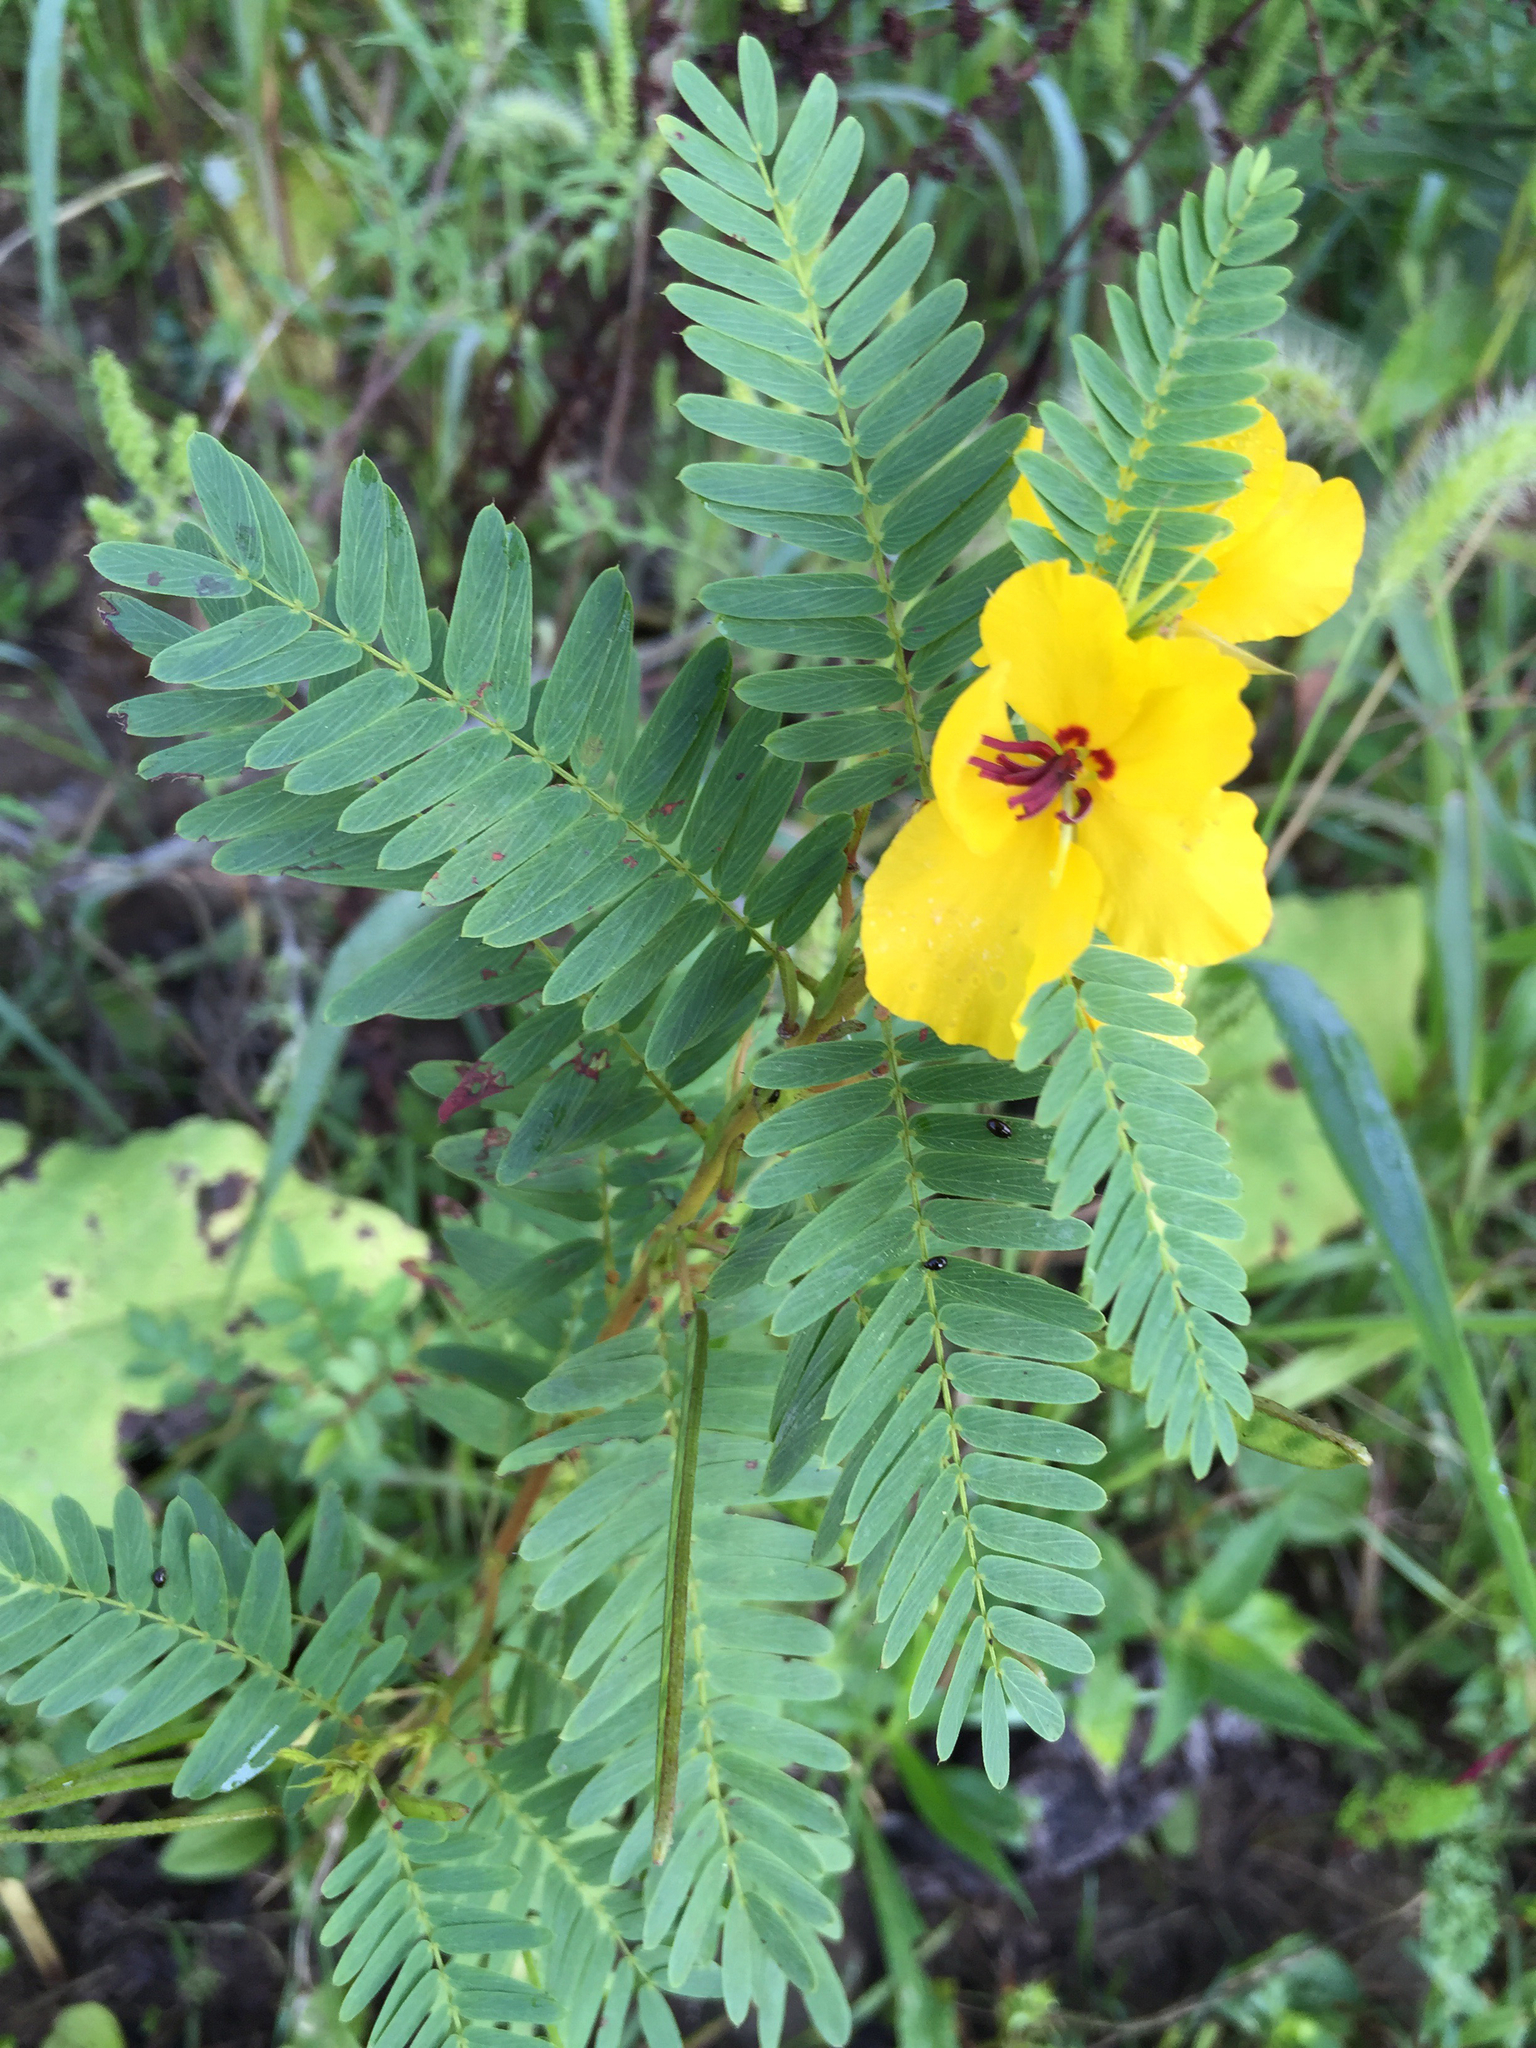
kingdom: Plantae
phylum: Tracheophyta
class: Magnoliopsida
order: Fabales
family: Fabaceae
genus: Chamaecrista
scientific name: Chamaecrista fasciculata
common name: Golden cassia
